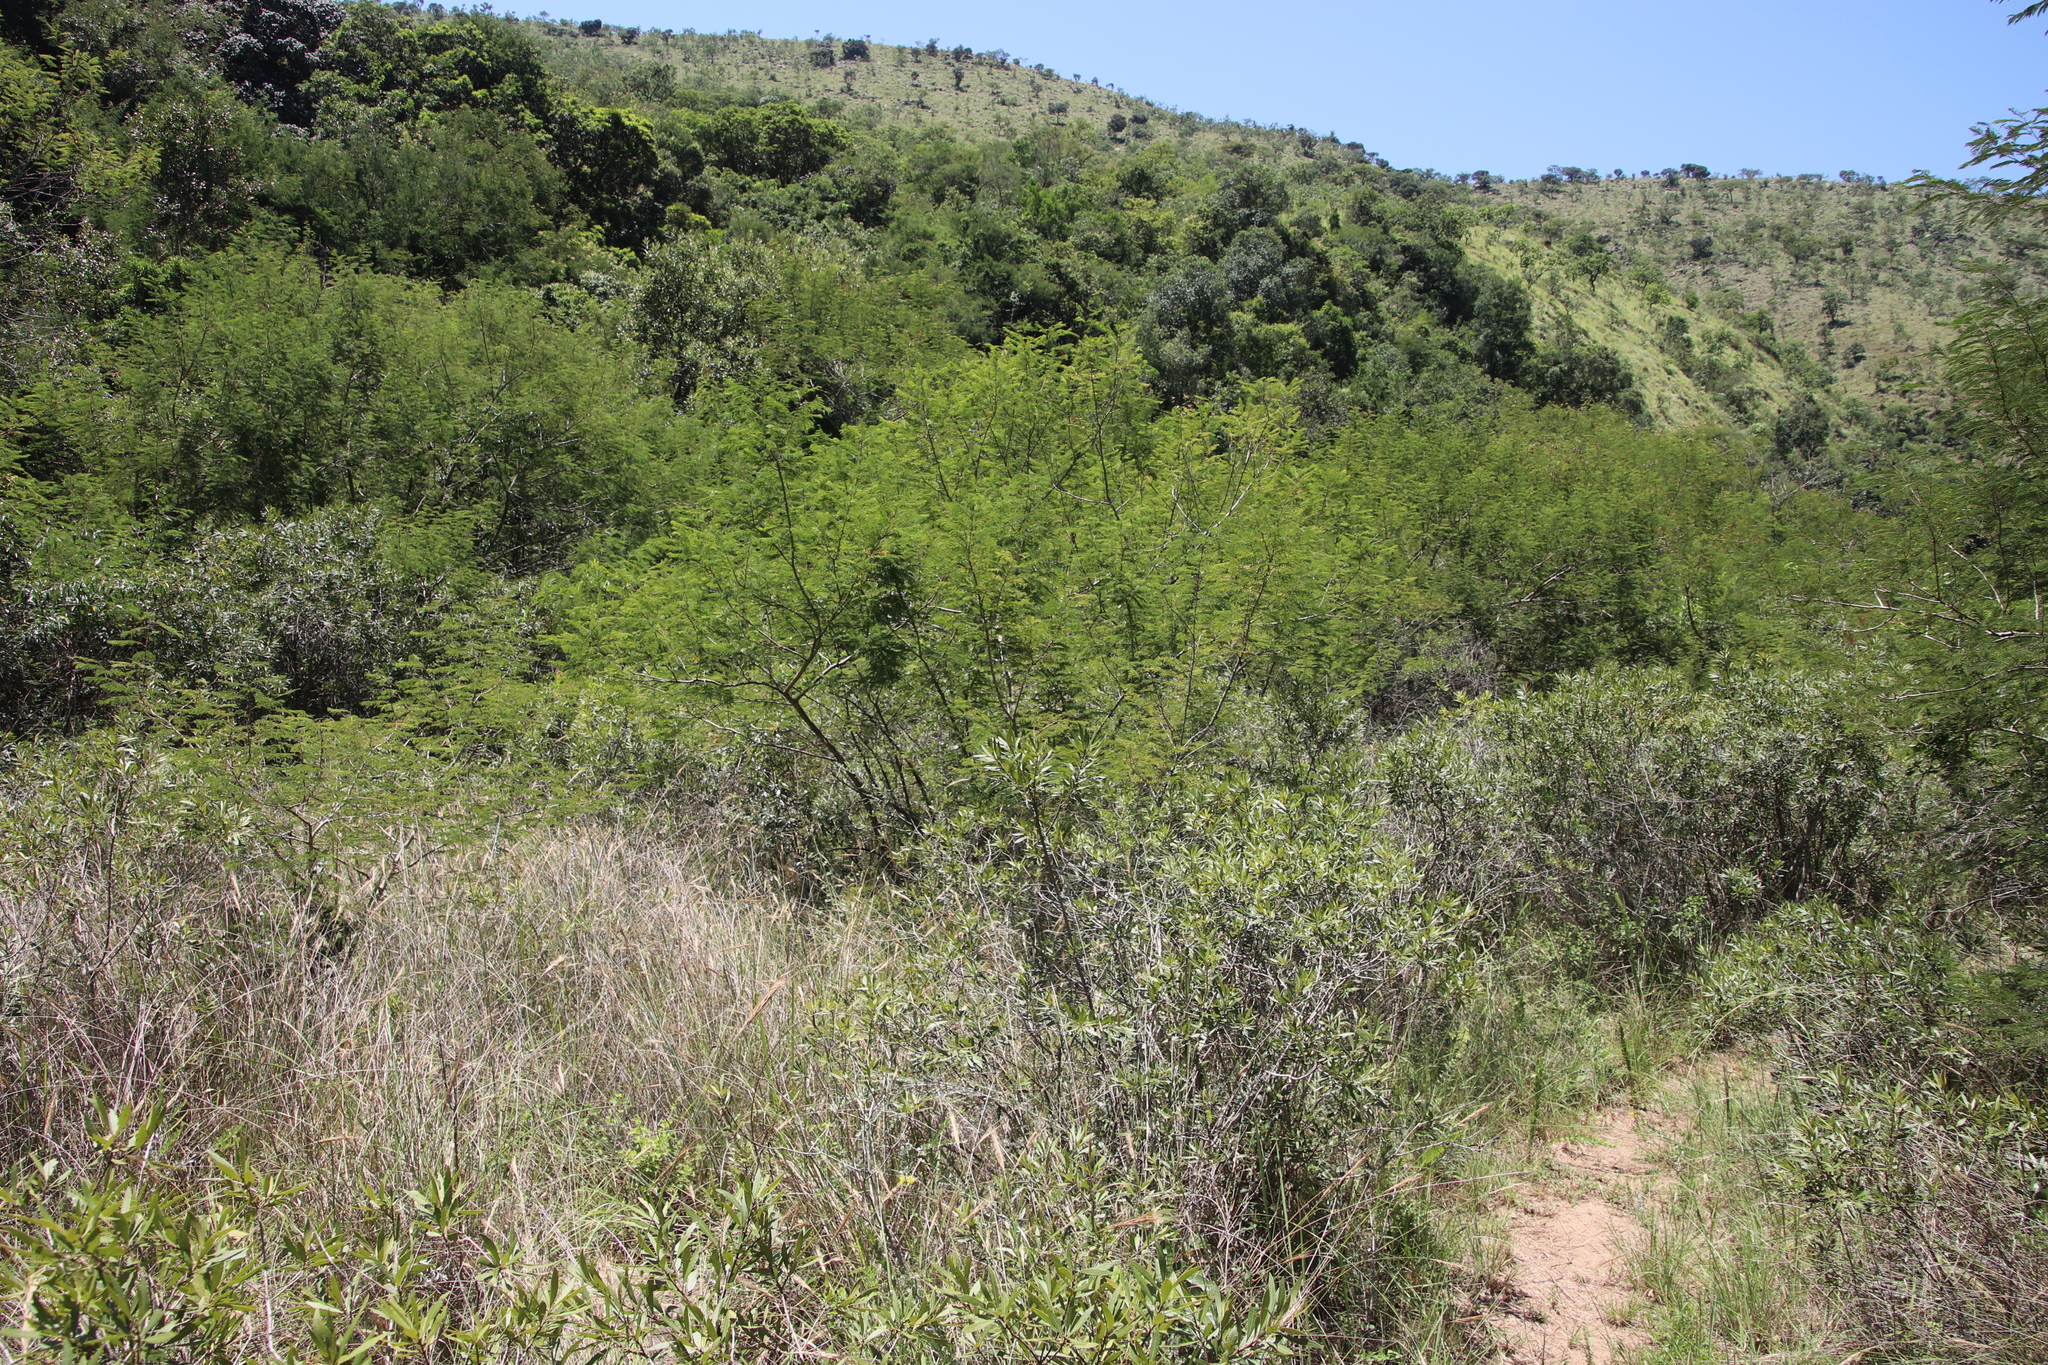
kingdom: Plantae
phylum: Tracheophyta
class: Magnoliopsida
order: Fabales
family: Fabaceae
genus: Senegalia
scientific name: Senegalia ataxacantha
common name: Flame acacia
